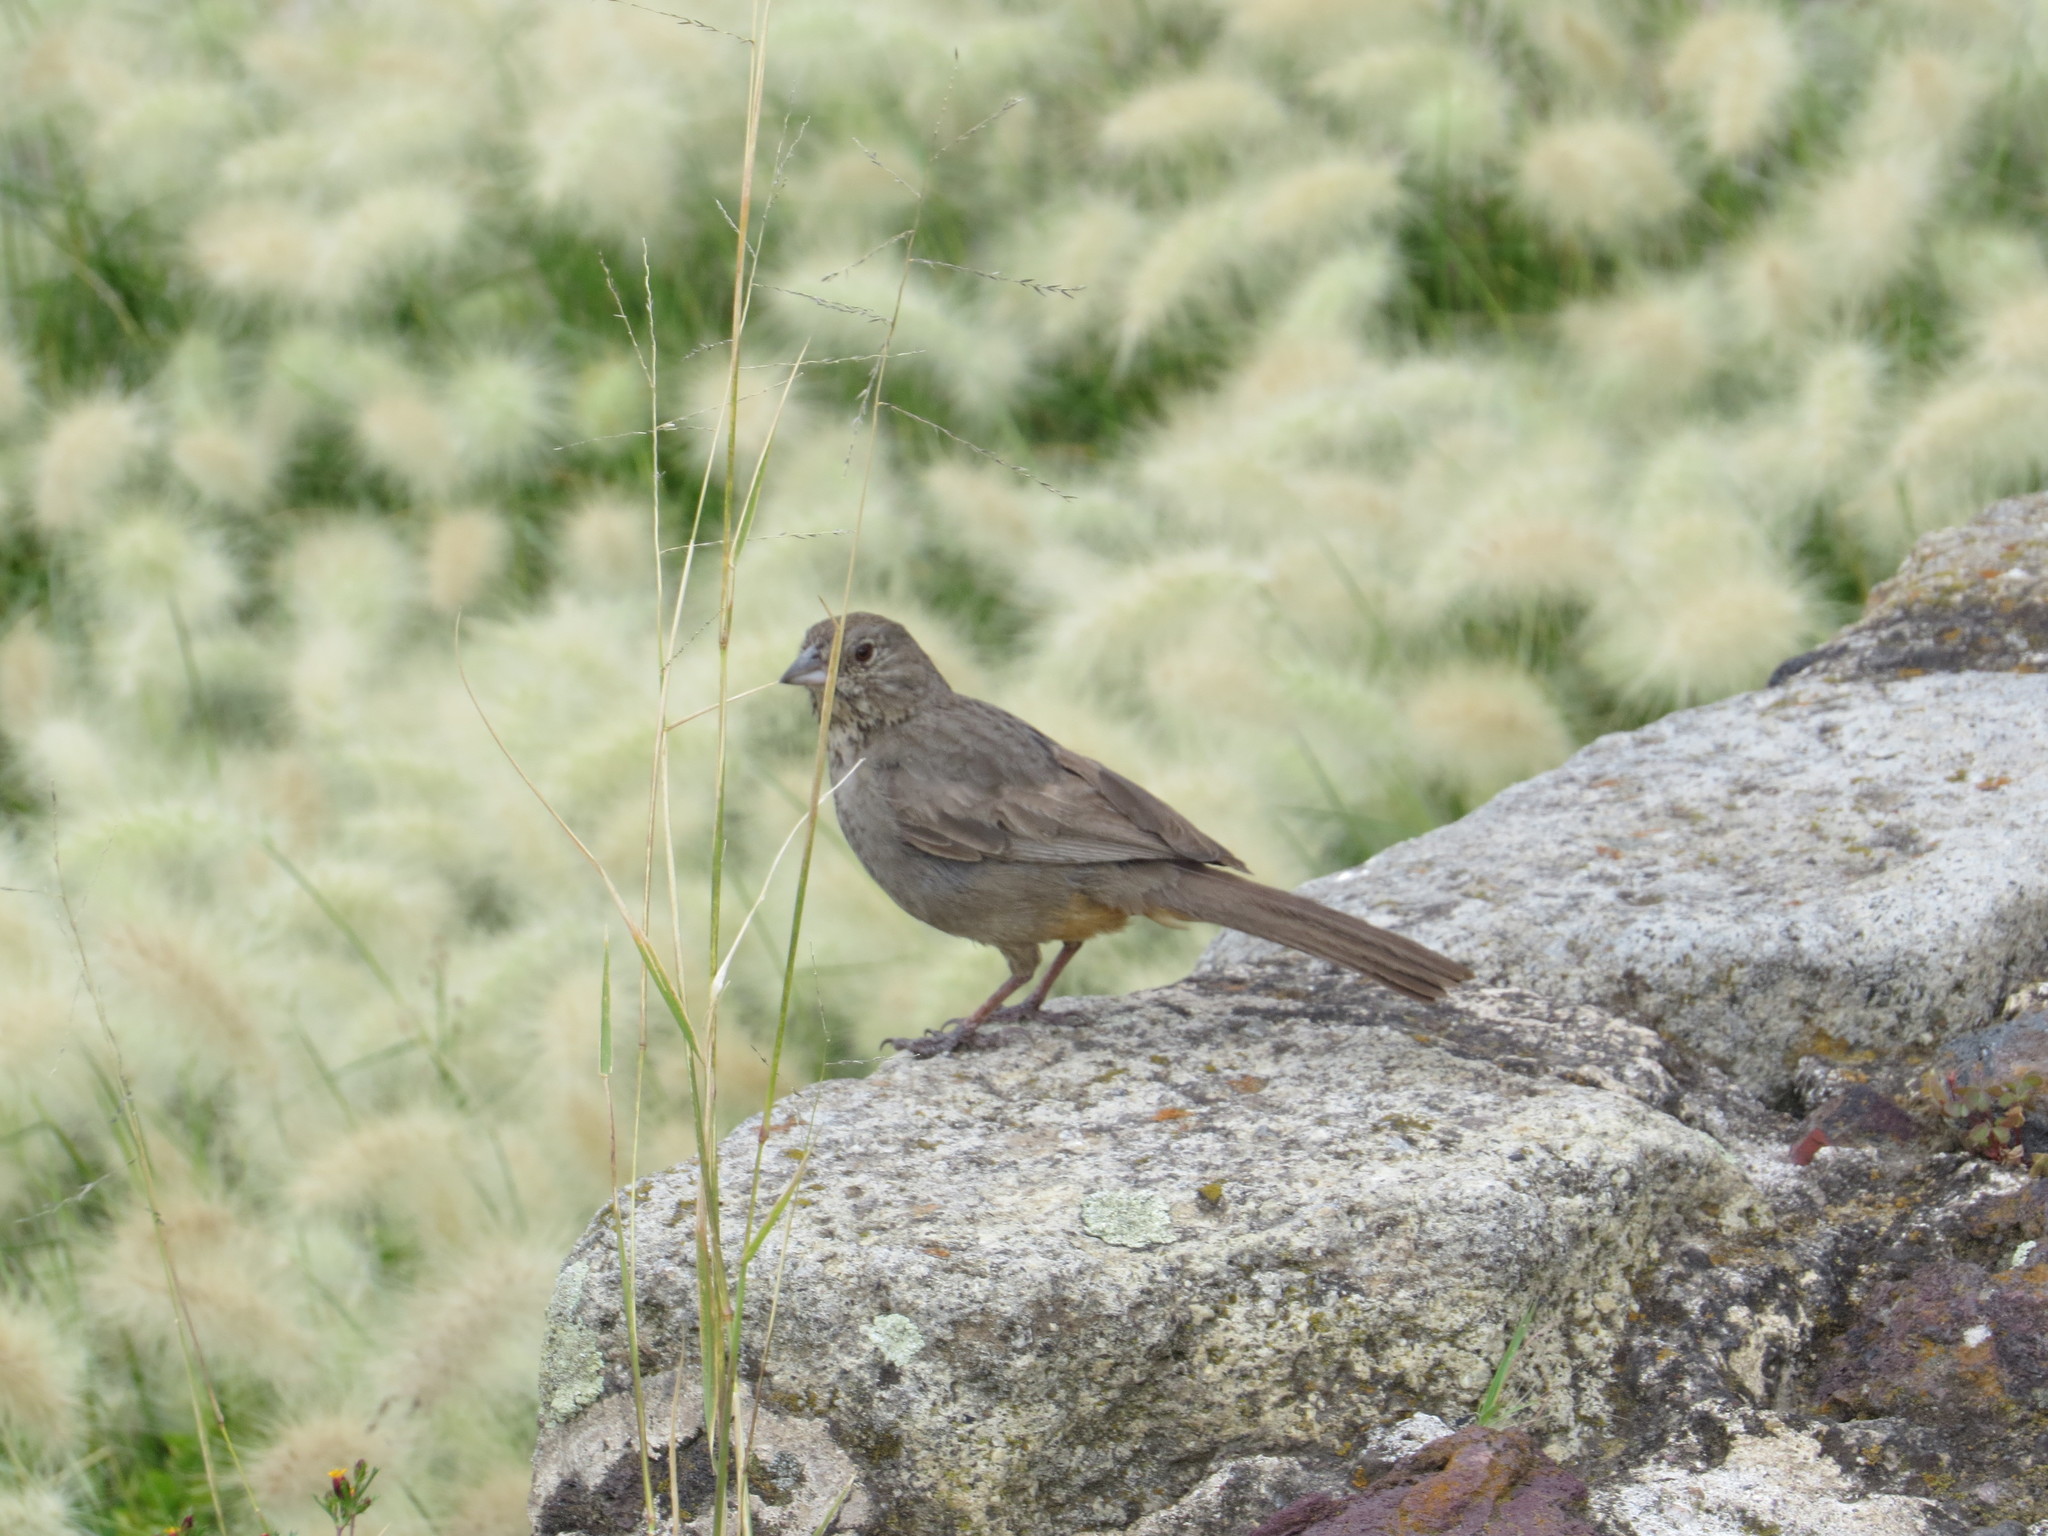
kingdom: Animalia
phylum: Chordata
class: Aves
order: Passeriformes
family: Passerellidae
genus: Melozone
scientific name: Melozone fusca
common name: Canyon towhee
